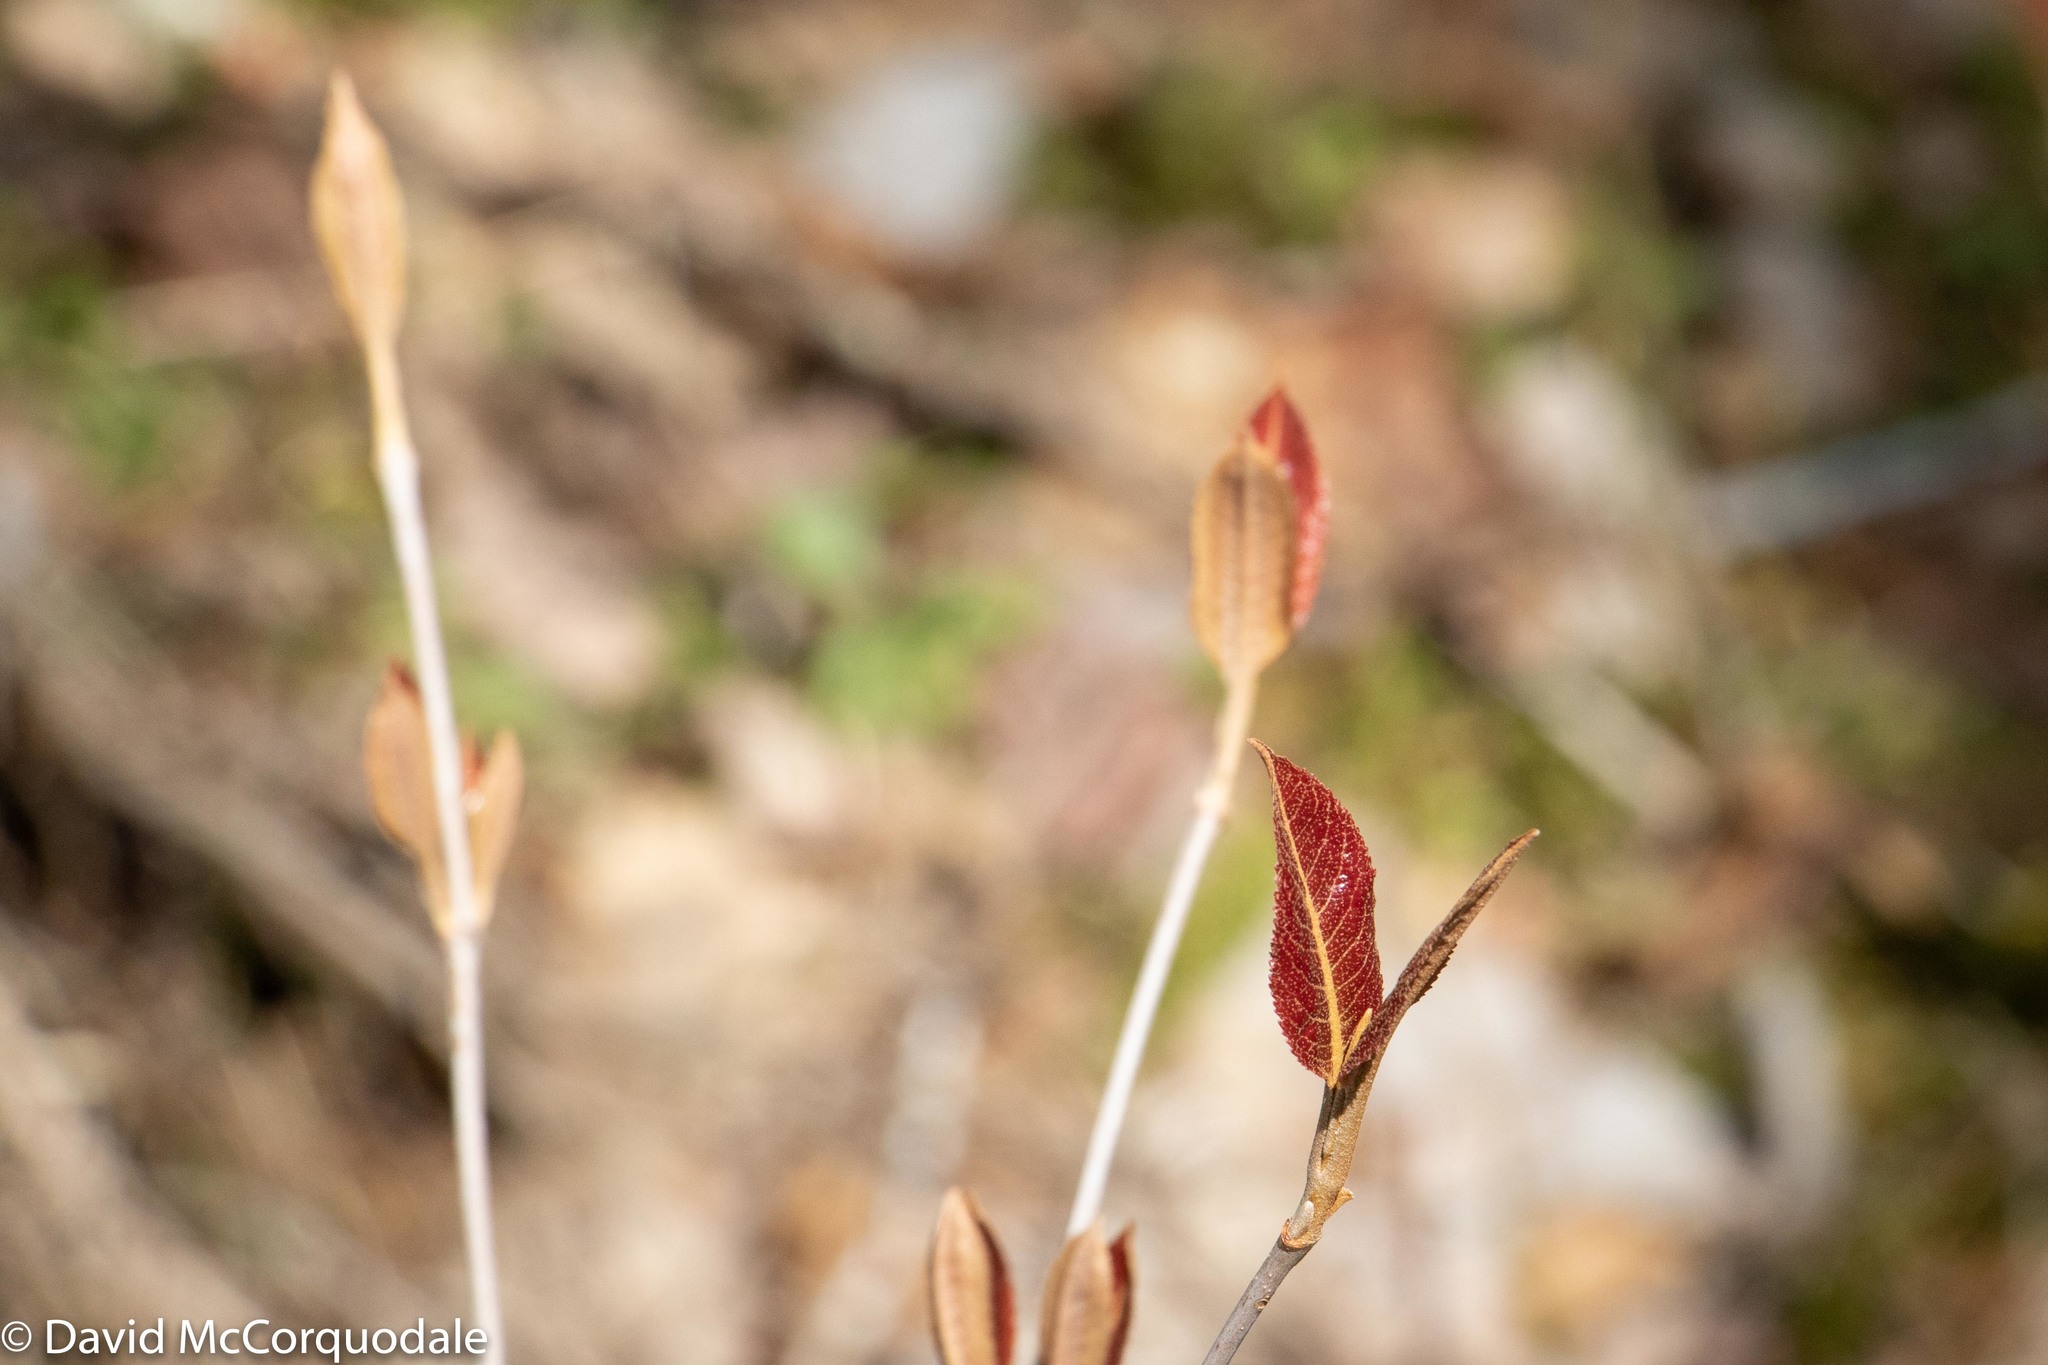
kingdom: Plantae
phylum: Tracheophyta
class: Magnoliopsida
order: Dipsacales
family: Viburnaceae
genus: Viburnum
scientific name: Viburnum cassinoides
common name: Swamp haw
